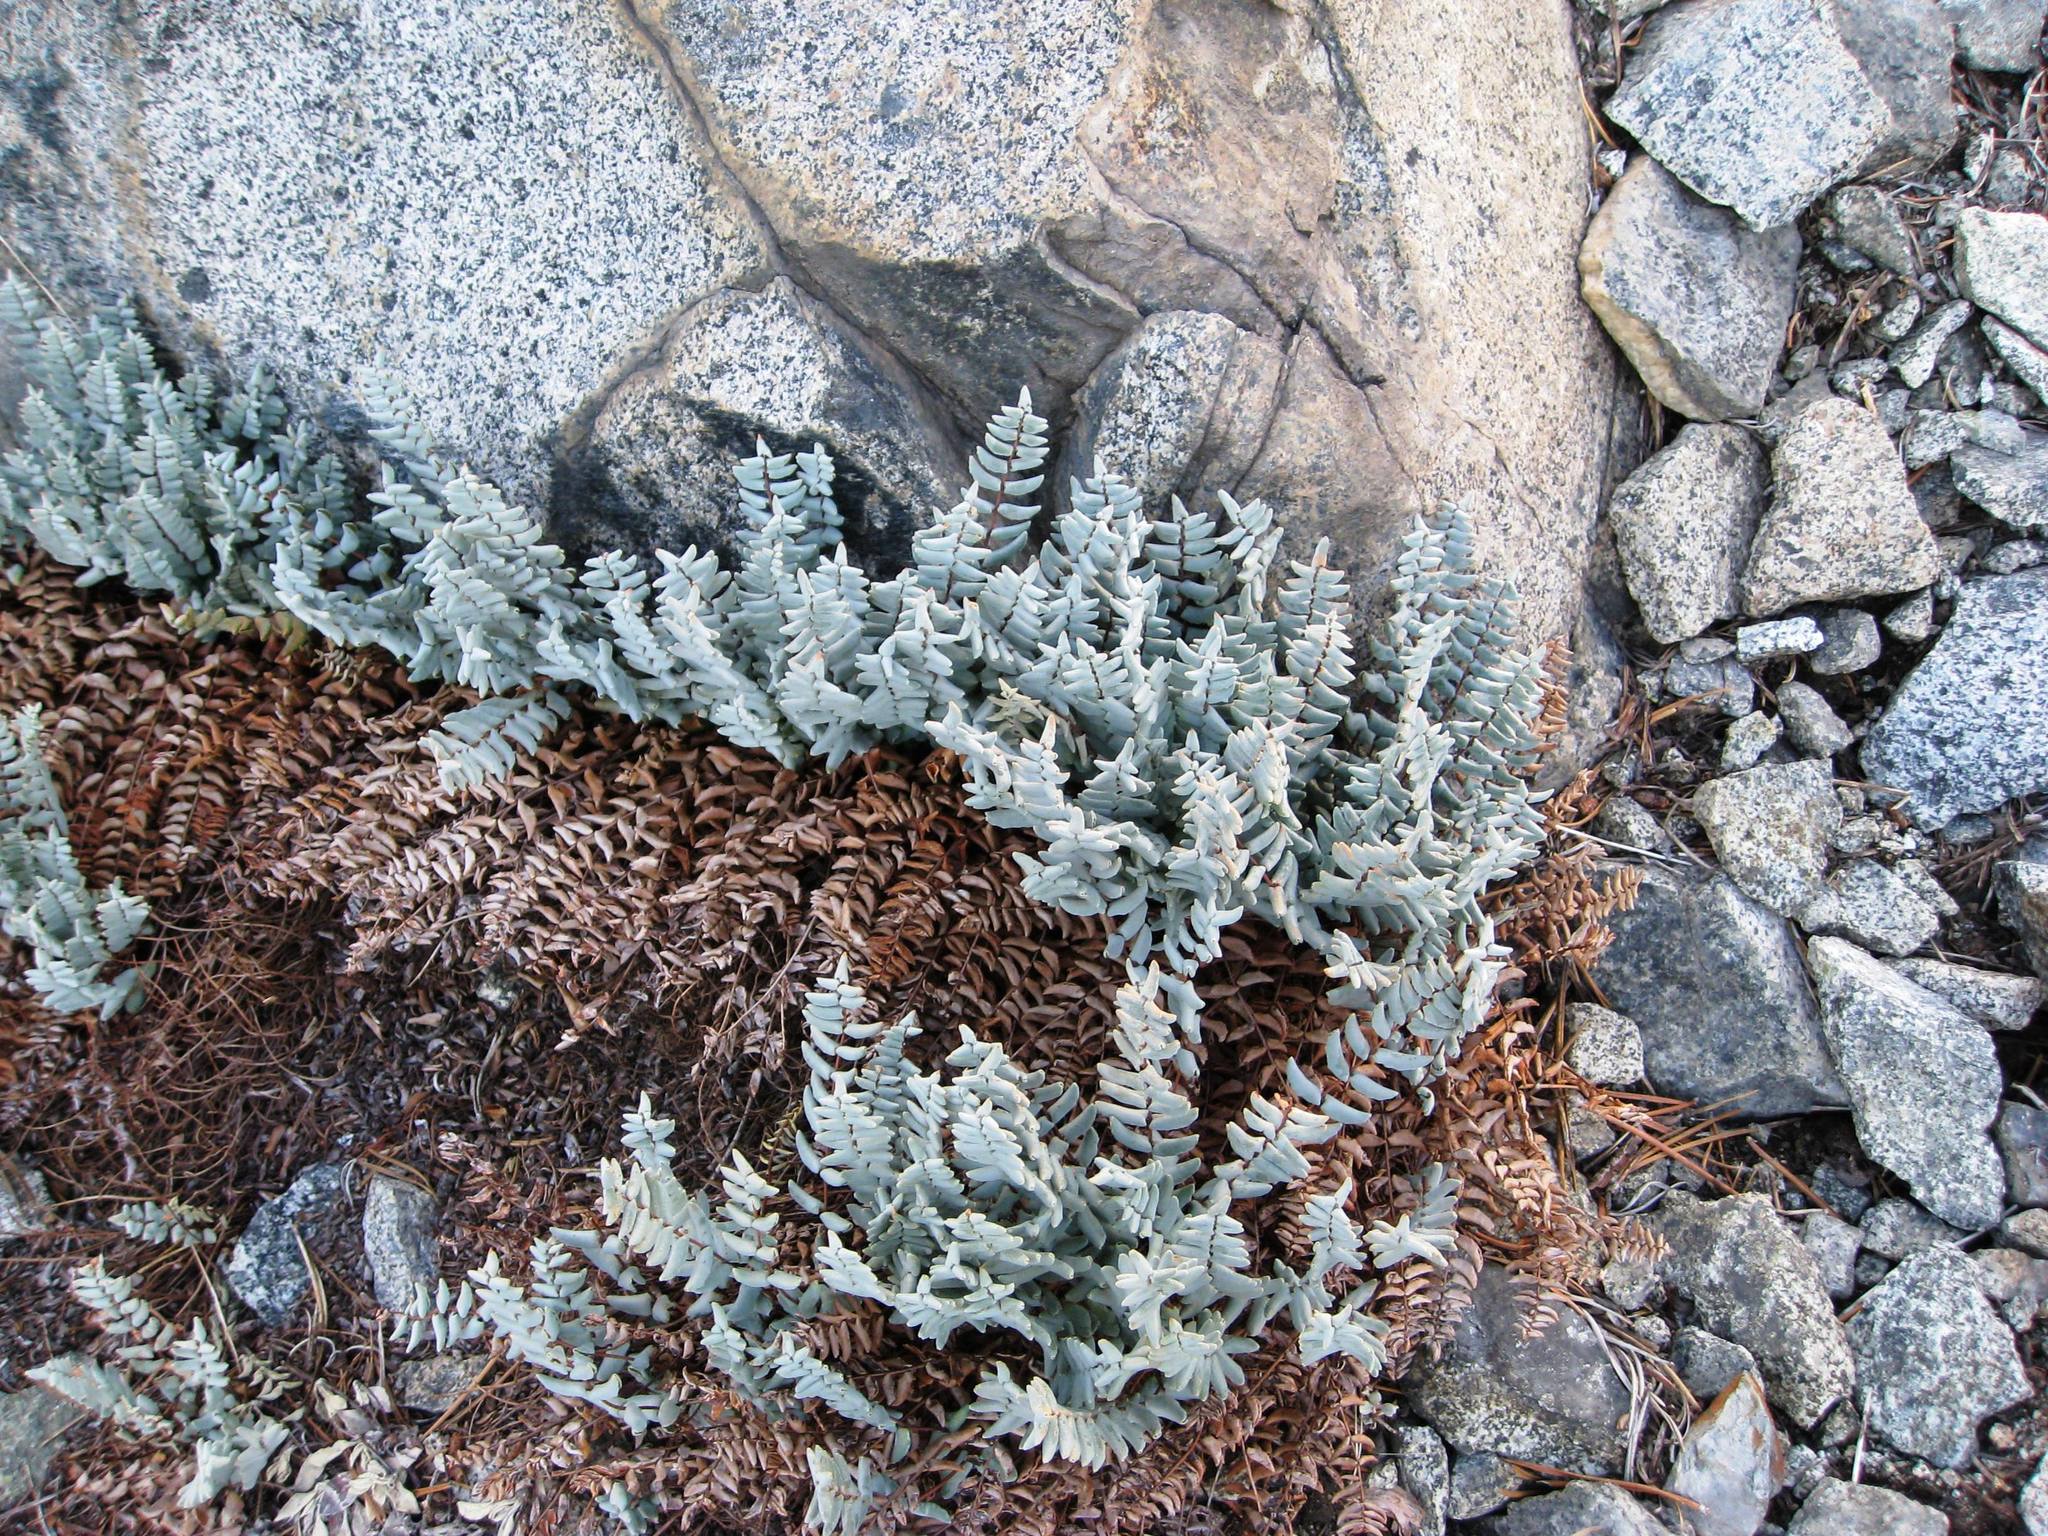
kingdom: Plantae
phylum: Tracheophyta
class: Polypodiopsida
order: Polypodiales
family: Pteridaceae
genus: Pellaea
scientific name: Pellaea bridgesii
